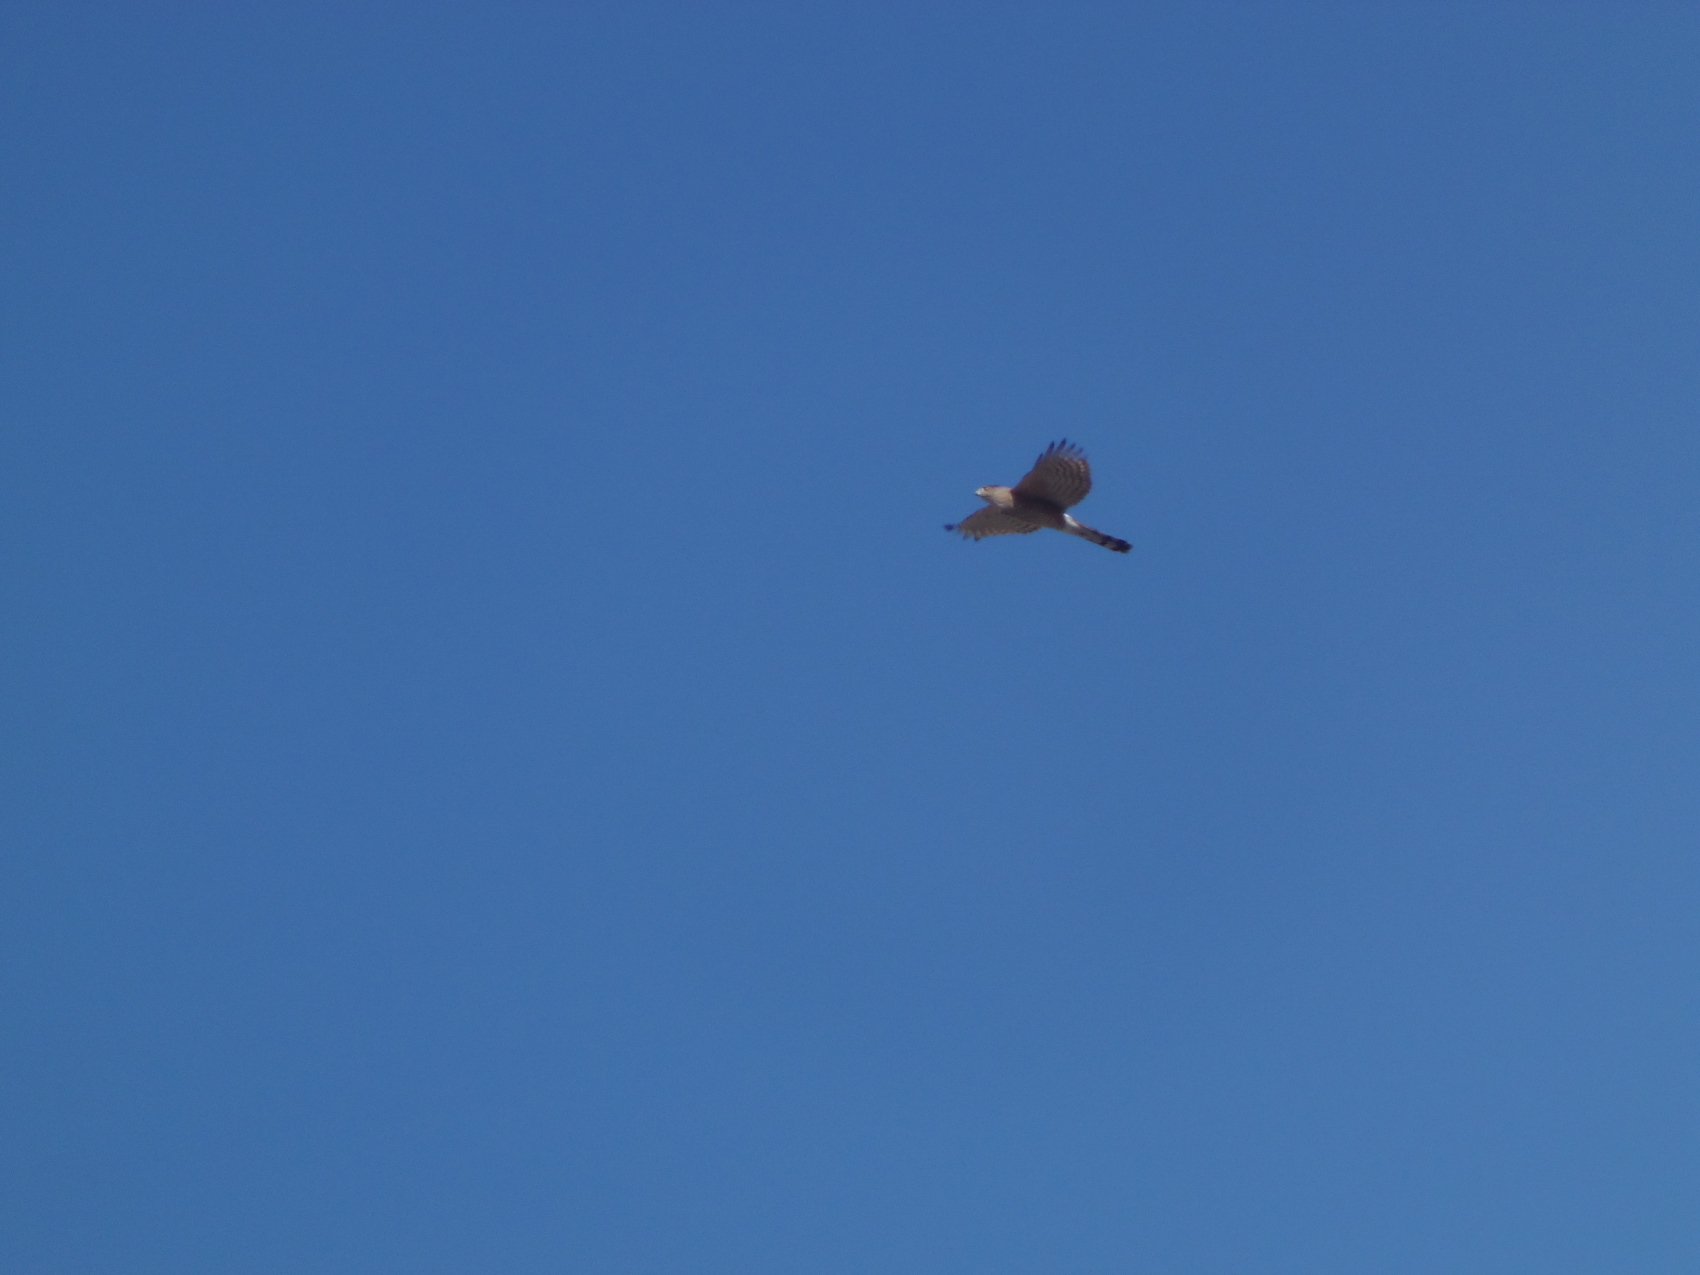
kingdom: Animalia
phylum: Chordata
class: Aves
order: Accipitriformes
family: Accipitridae
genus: Accipiter
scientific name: Accipiter cooperii
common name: Cooper's hawk
